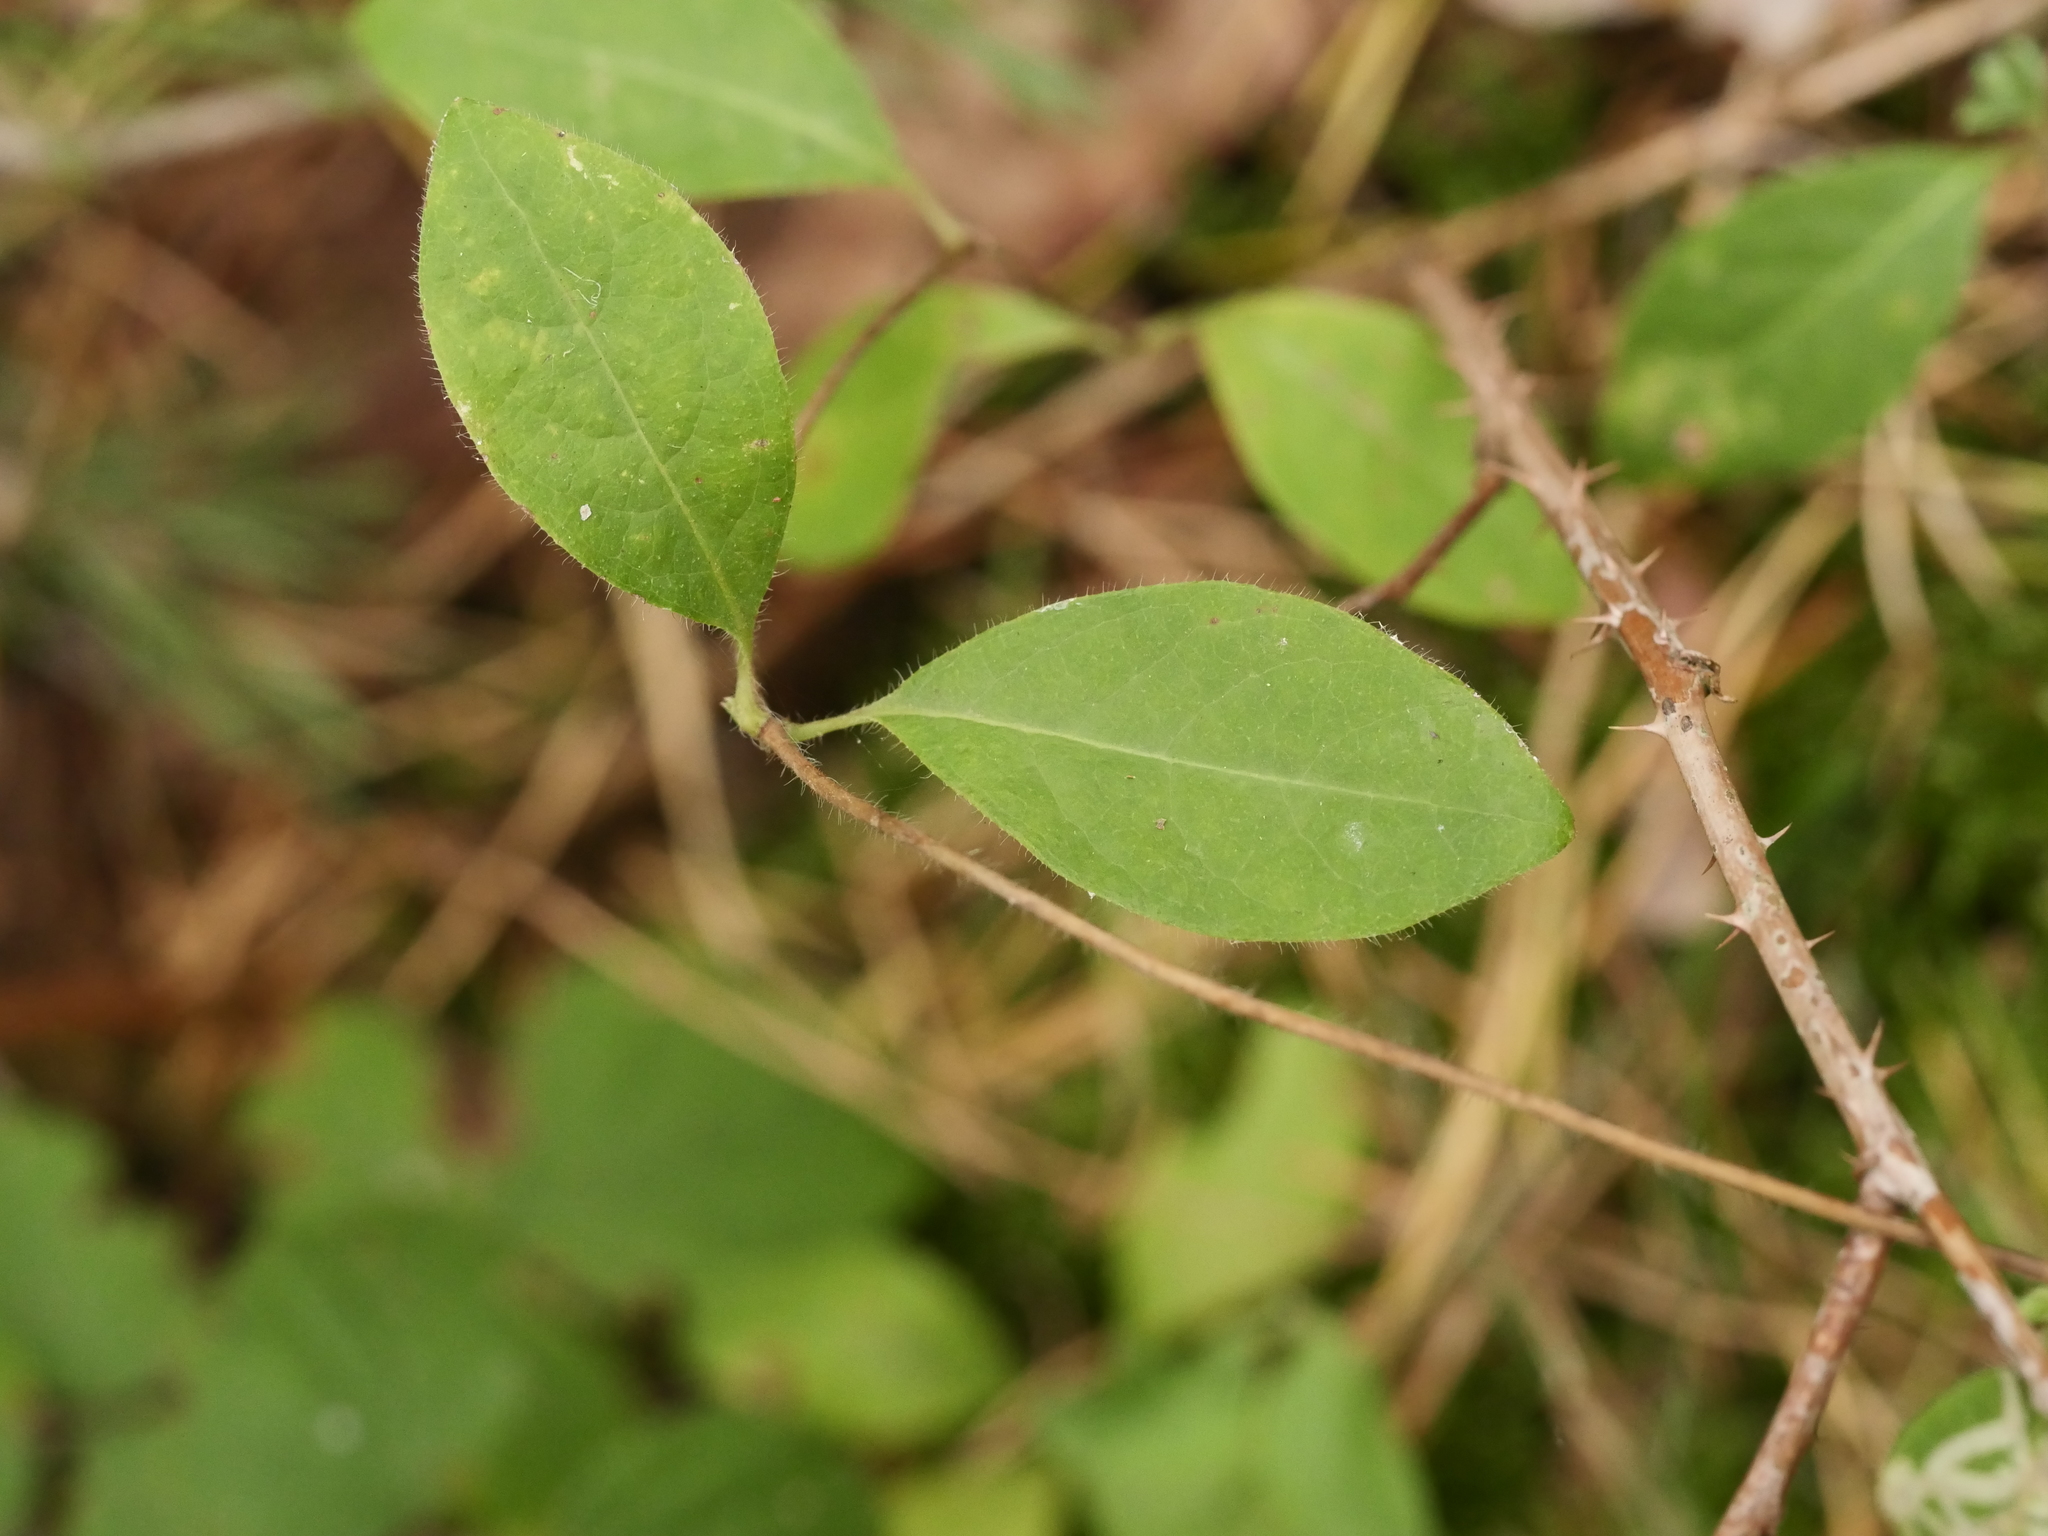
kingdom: Plantae
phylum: Tracheophyta
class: Magnoliopsida
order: Dipsacales
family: Caprifoliaceae
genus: Lonicera
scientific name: Lonicera periclymenum
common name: European honeysuckle
